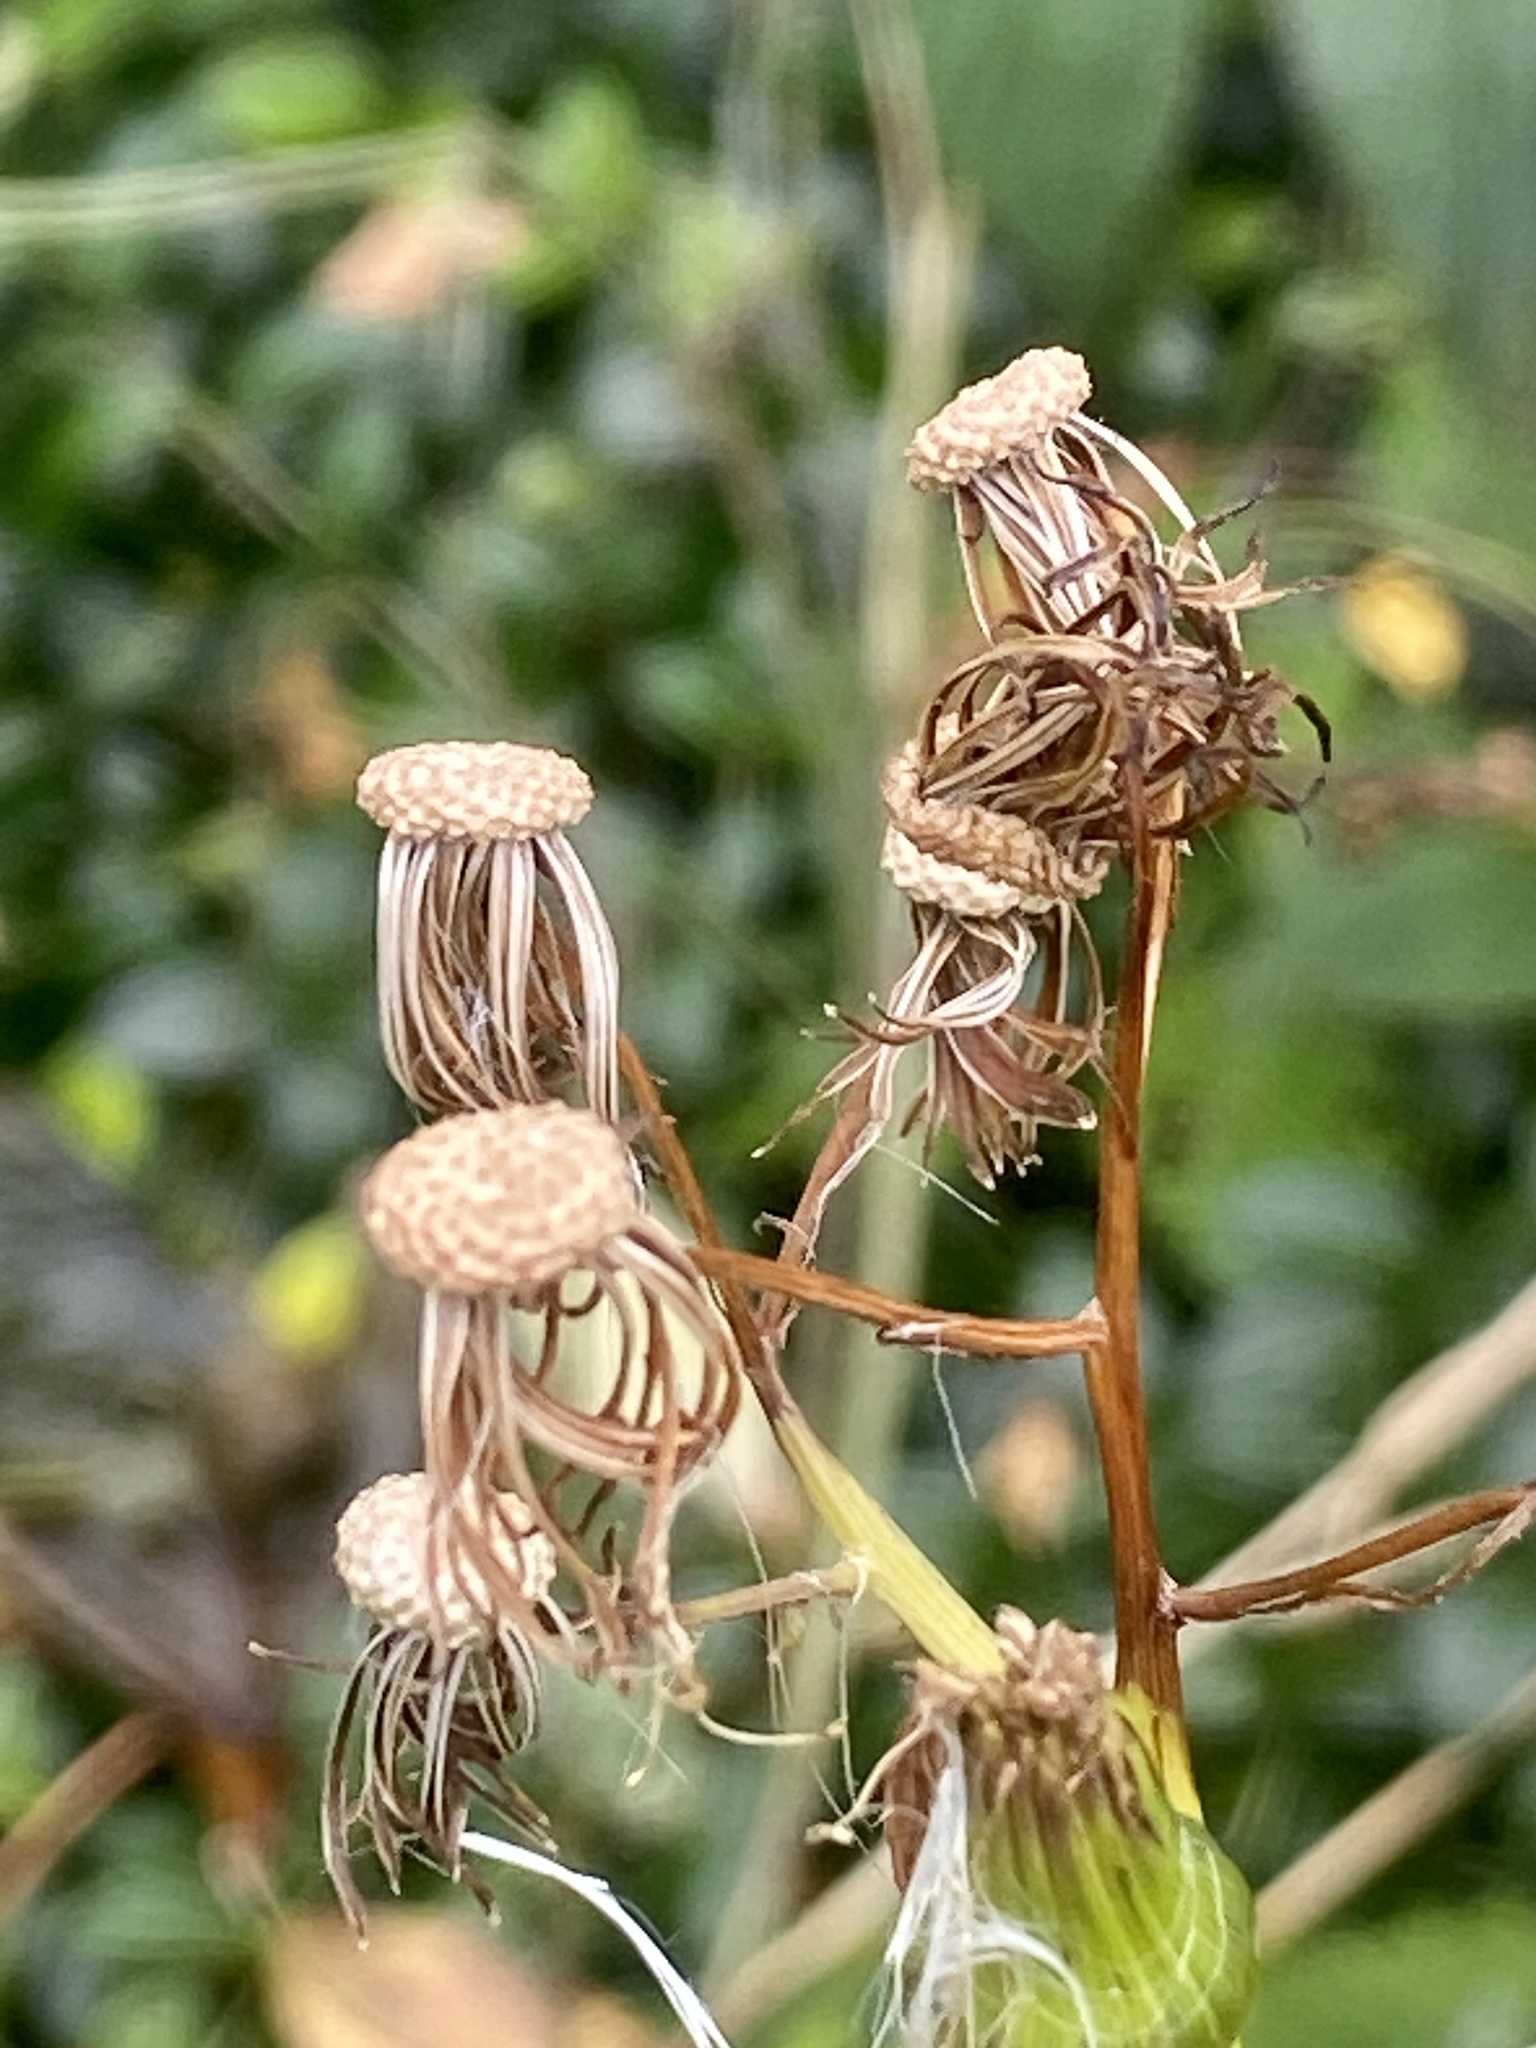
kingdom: Plantae
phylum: Tracheophyta
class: Magnoliopsida
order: Asterales
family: Asteraceae
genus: Erechtites
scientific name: Erechtites hieraciifolius
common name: American burnweed
